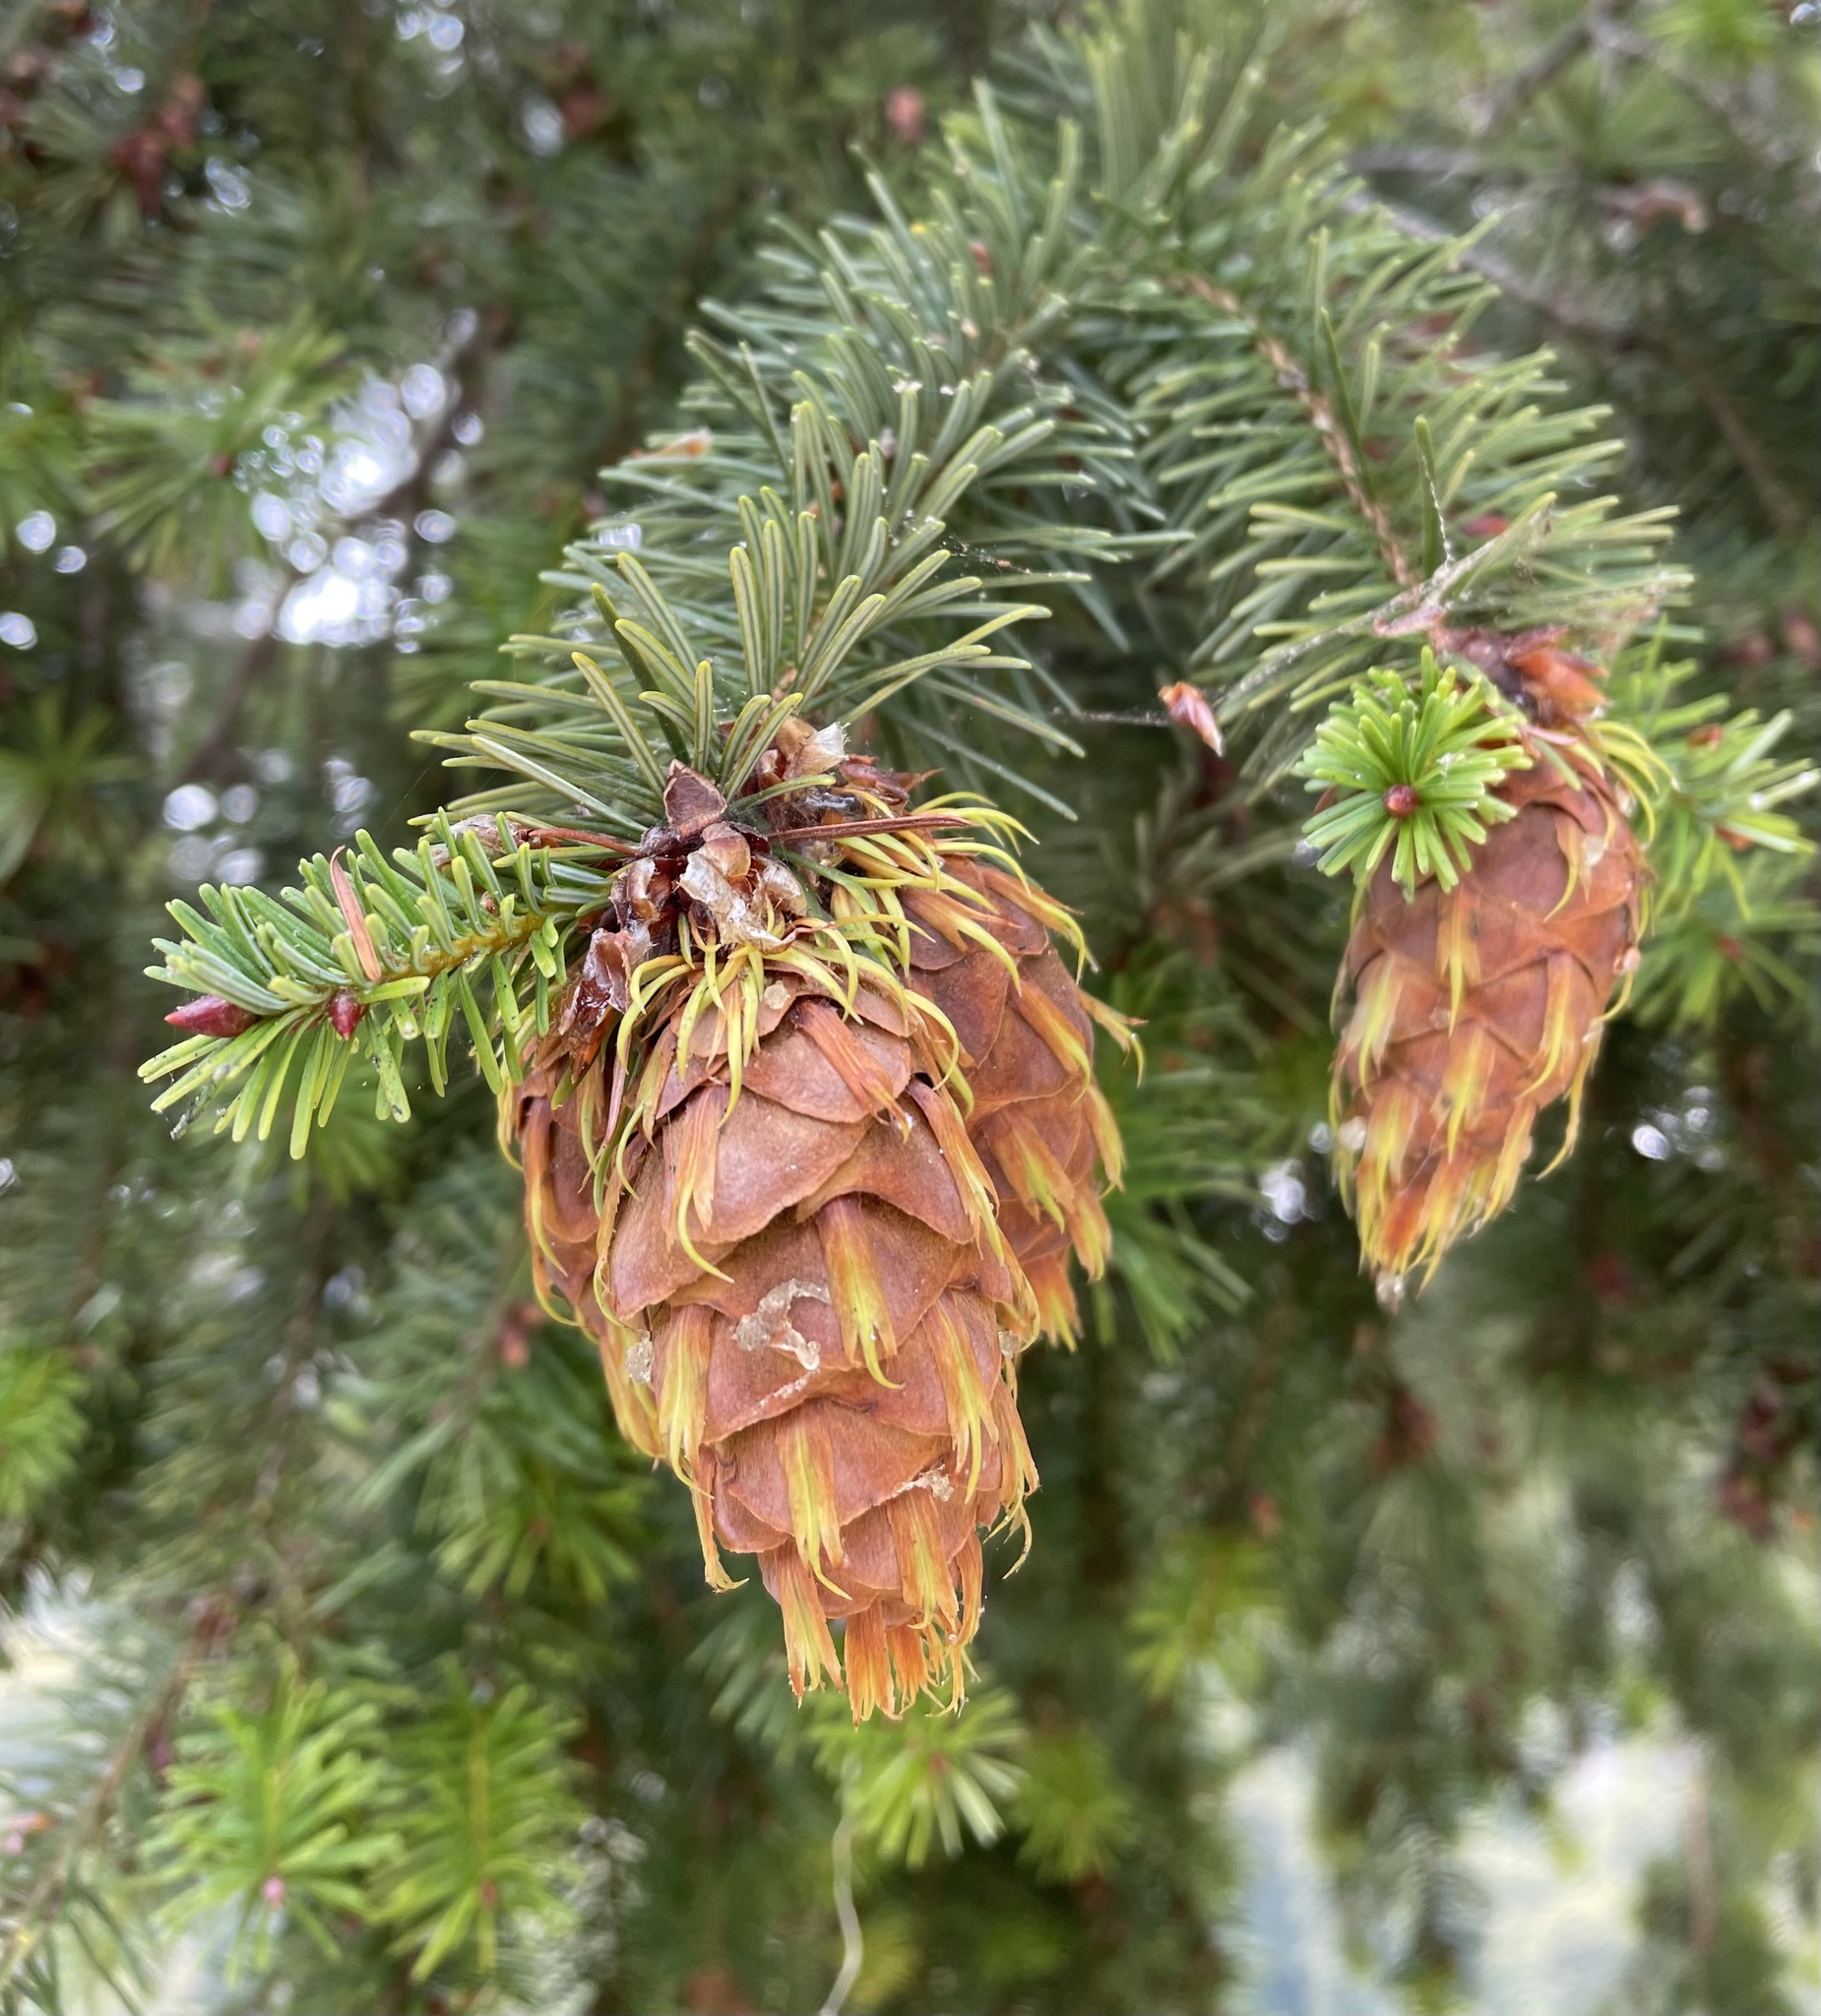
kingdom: Plantae
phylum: Tracheophyta
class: Pinopsida
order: Pinales
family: Pinaceae
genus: Pseudotsuga
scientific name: Pseudotsuga menziesii
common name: Douglas fir
